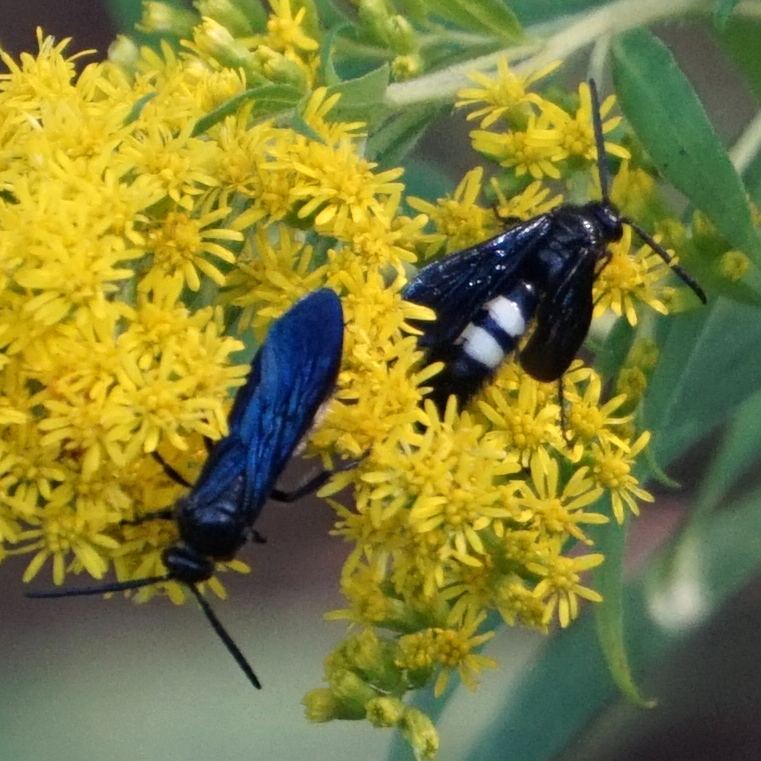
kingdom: Animalia
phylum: Arthropoda
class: Insecta
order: Hymenoptera
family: Scoliidae
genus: Scolia
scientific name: Scolia bicincta
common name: Double-banded scoliid wasp
